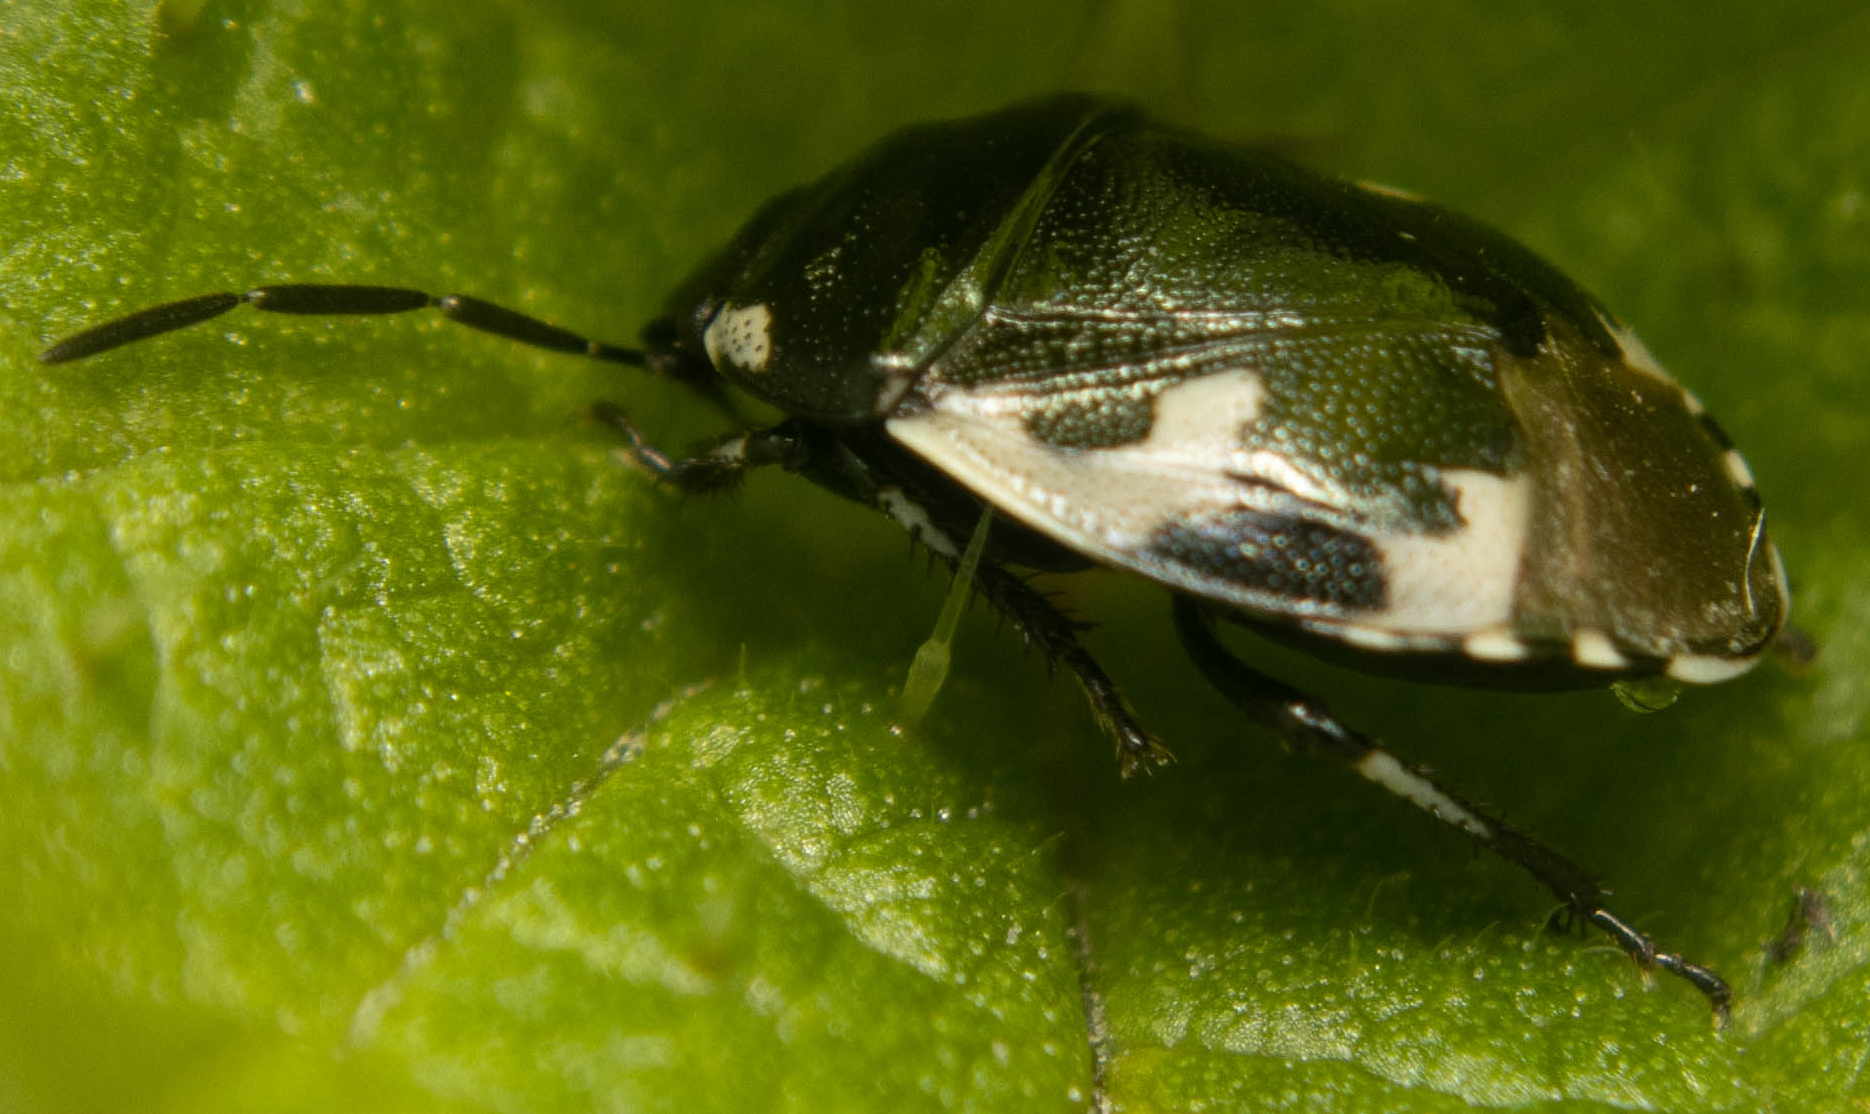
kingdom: Animalia
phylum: Arthropoda
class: Insecta
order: Hemiptera
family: Cydnidae
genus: Tritomegas
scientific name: Tritomegas bicolor
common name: Pied shieldbug
